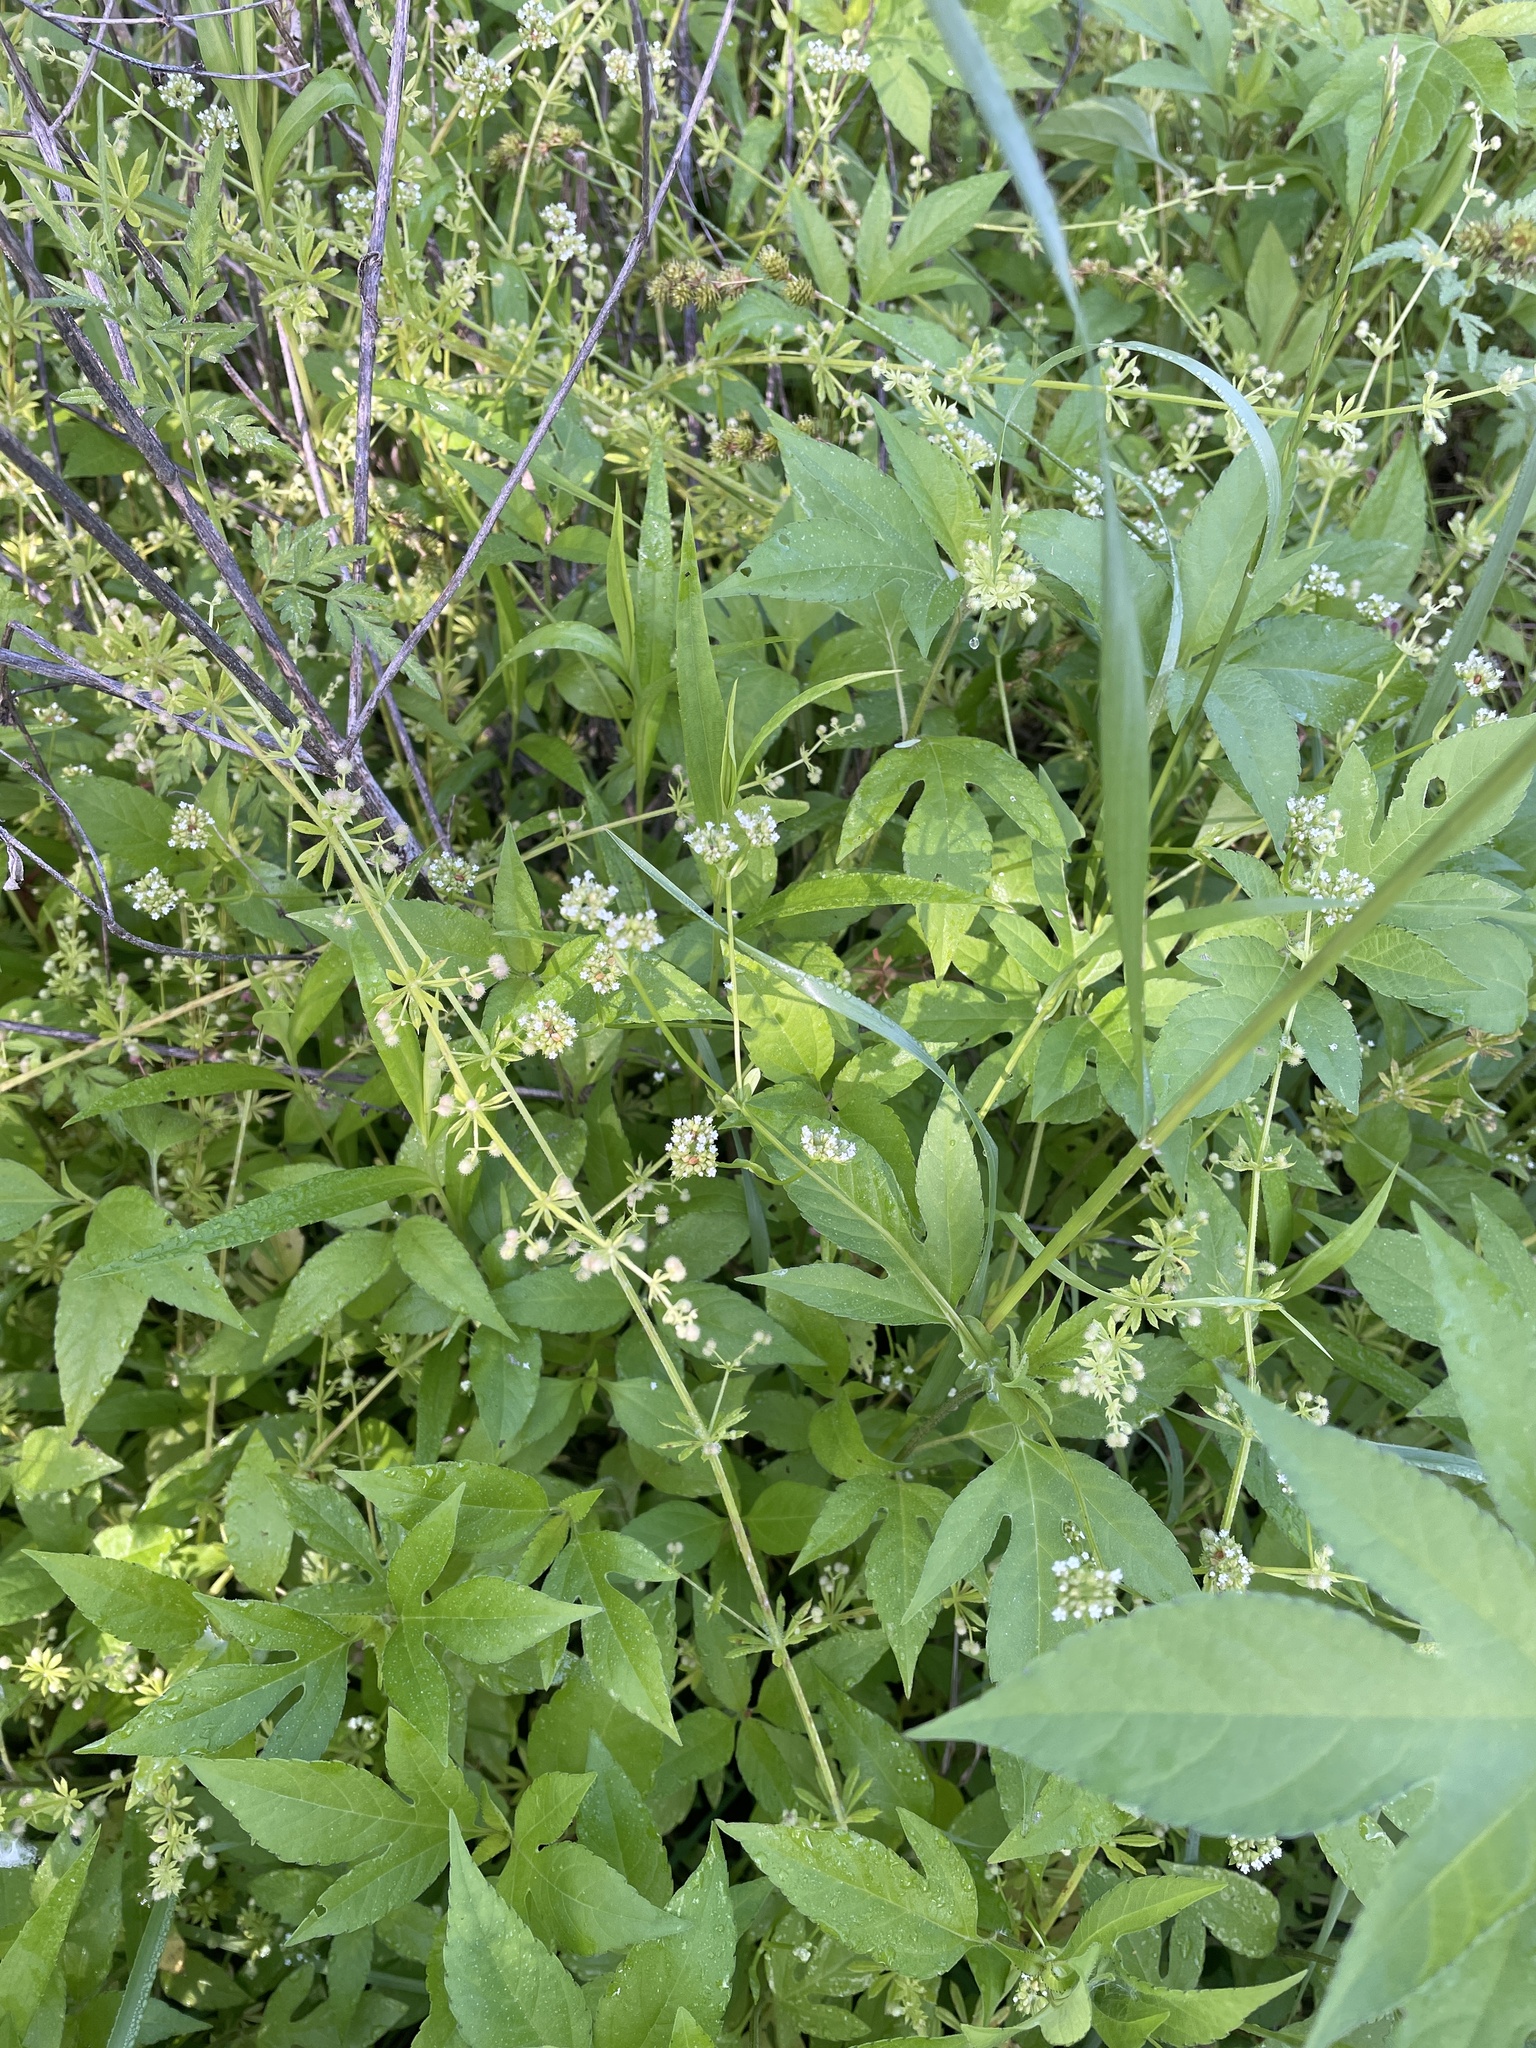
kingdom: Plantae
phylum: Tracheophyta
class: Magnoliopsida
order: Dipsacales
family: Caprifoliaceae
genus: Valerianella
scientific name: Valerianella radiata
